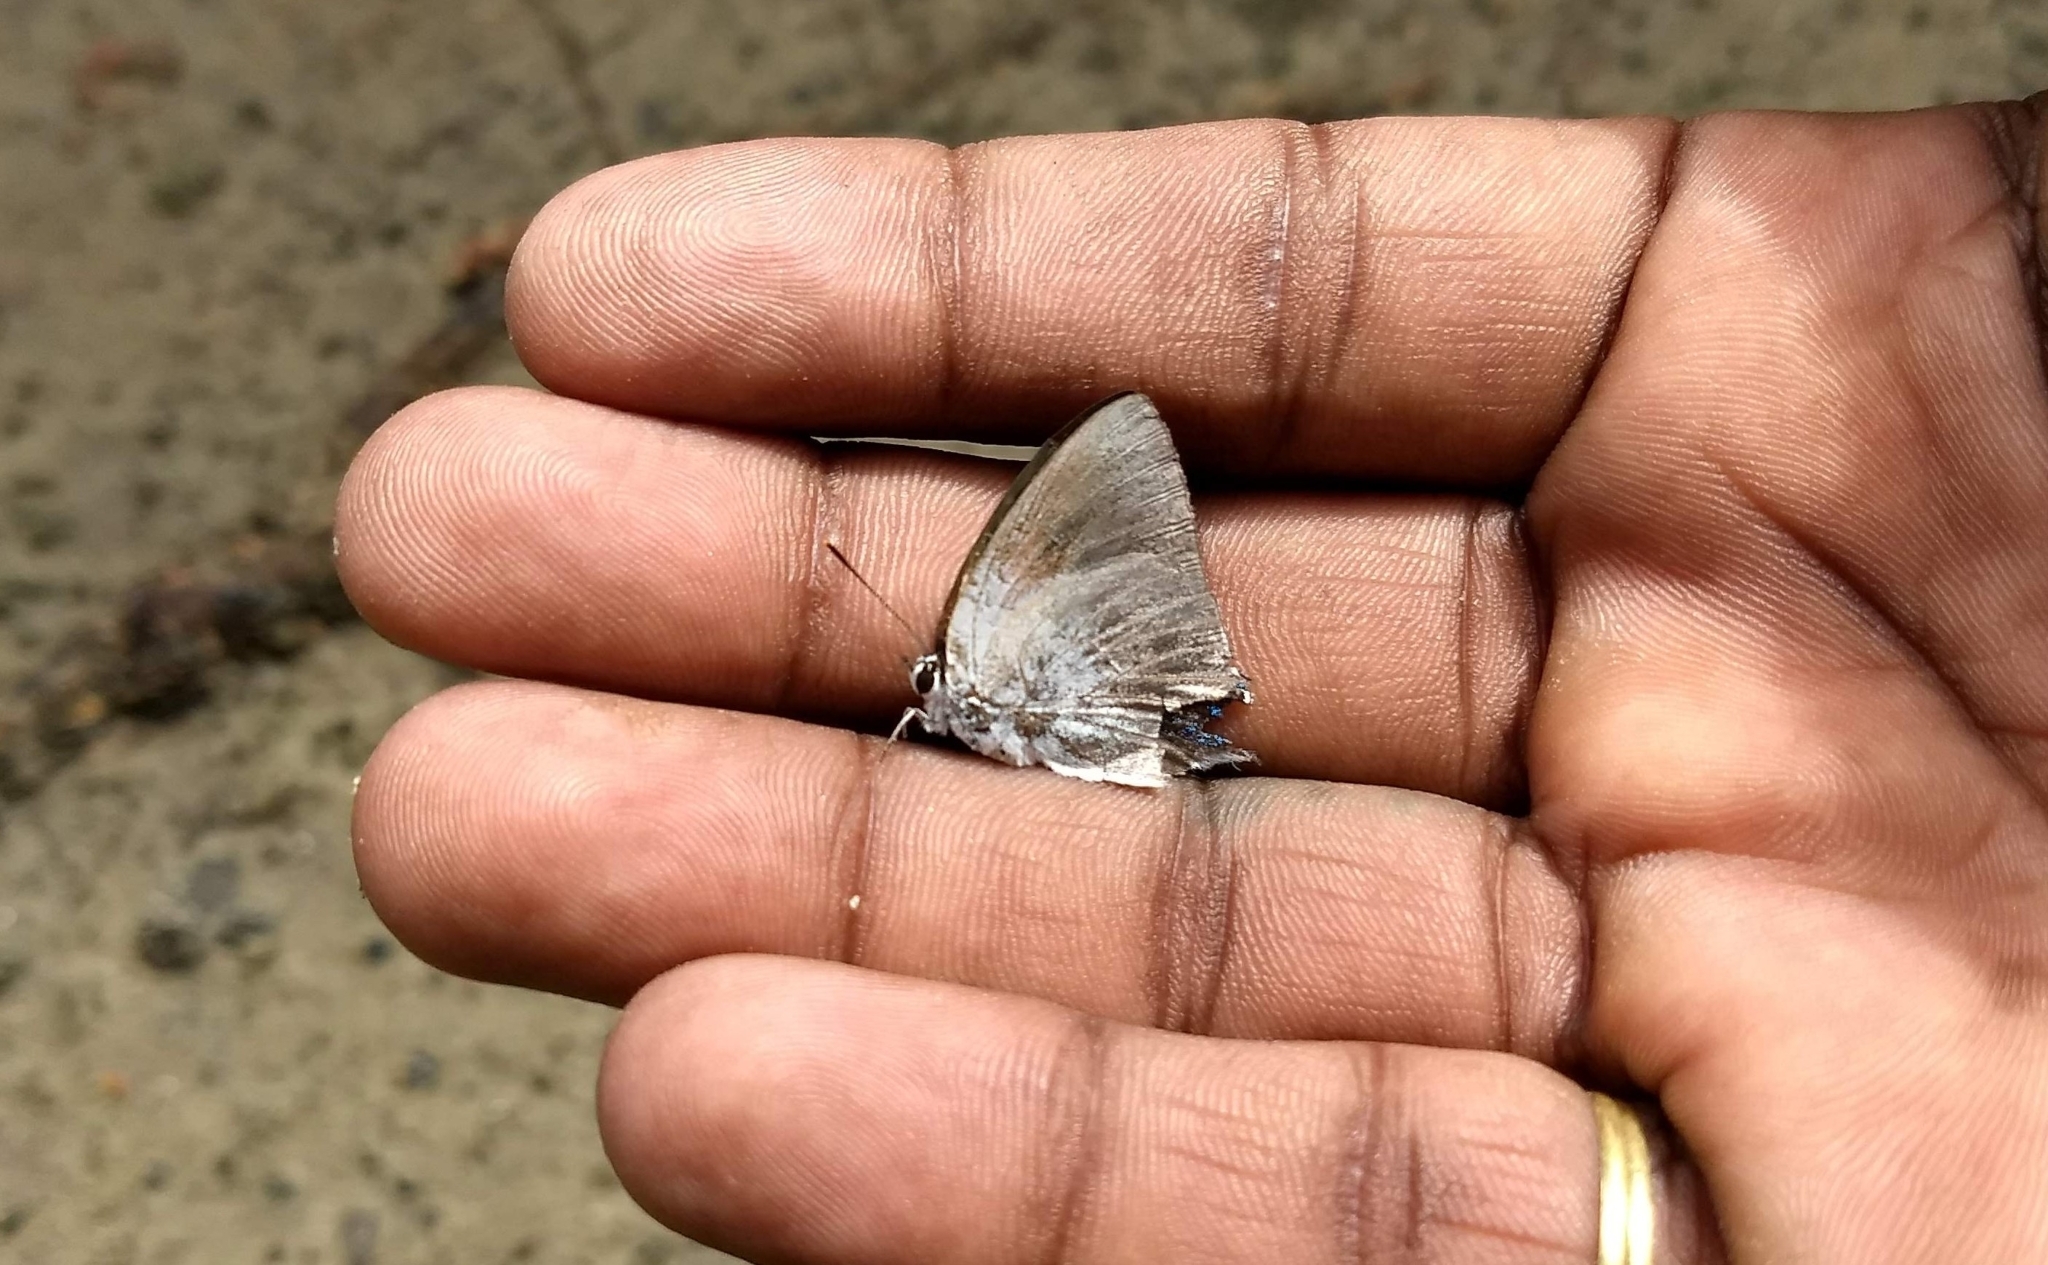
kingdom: Animalia
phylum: Arthropoda
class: Insecta
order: Lepidoptera
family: Lycaenidae
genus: Tajuria
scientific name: Tajuria cippus
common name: Peacock royal
